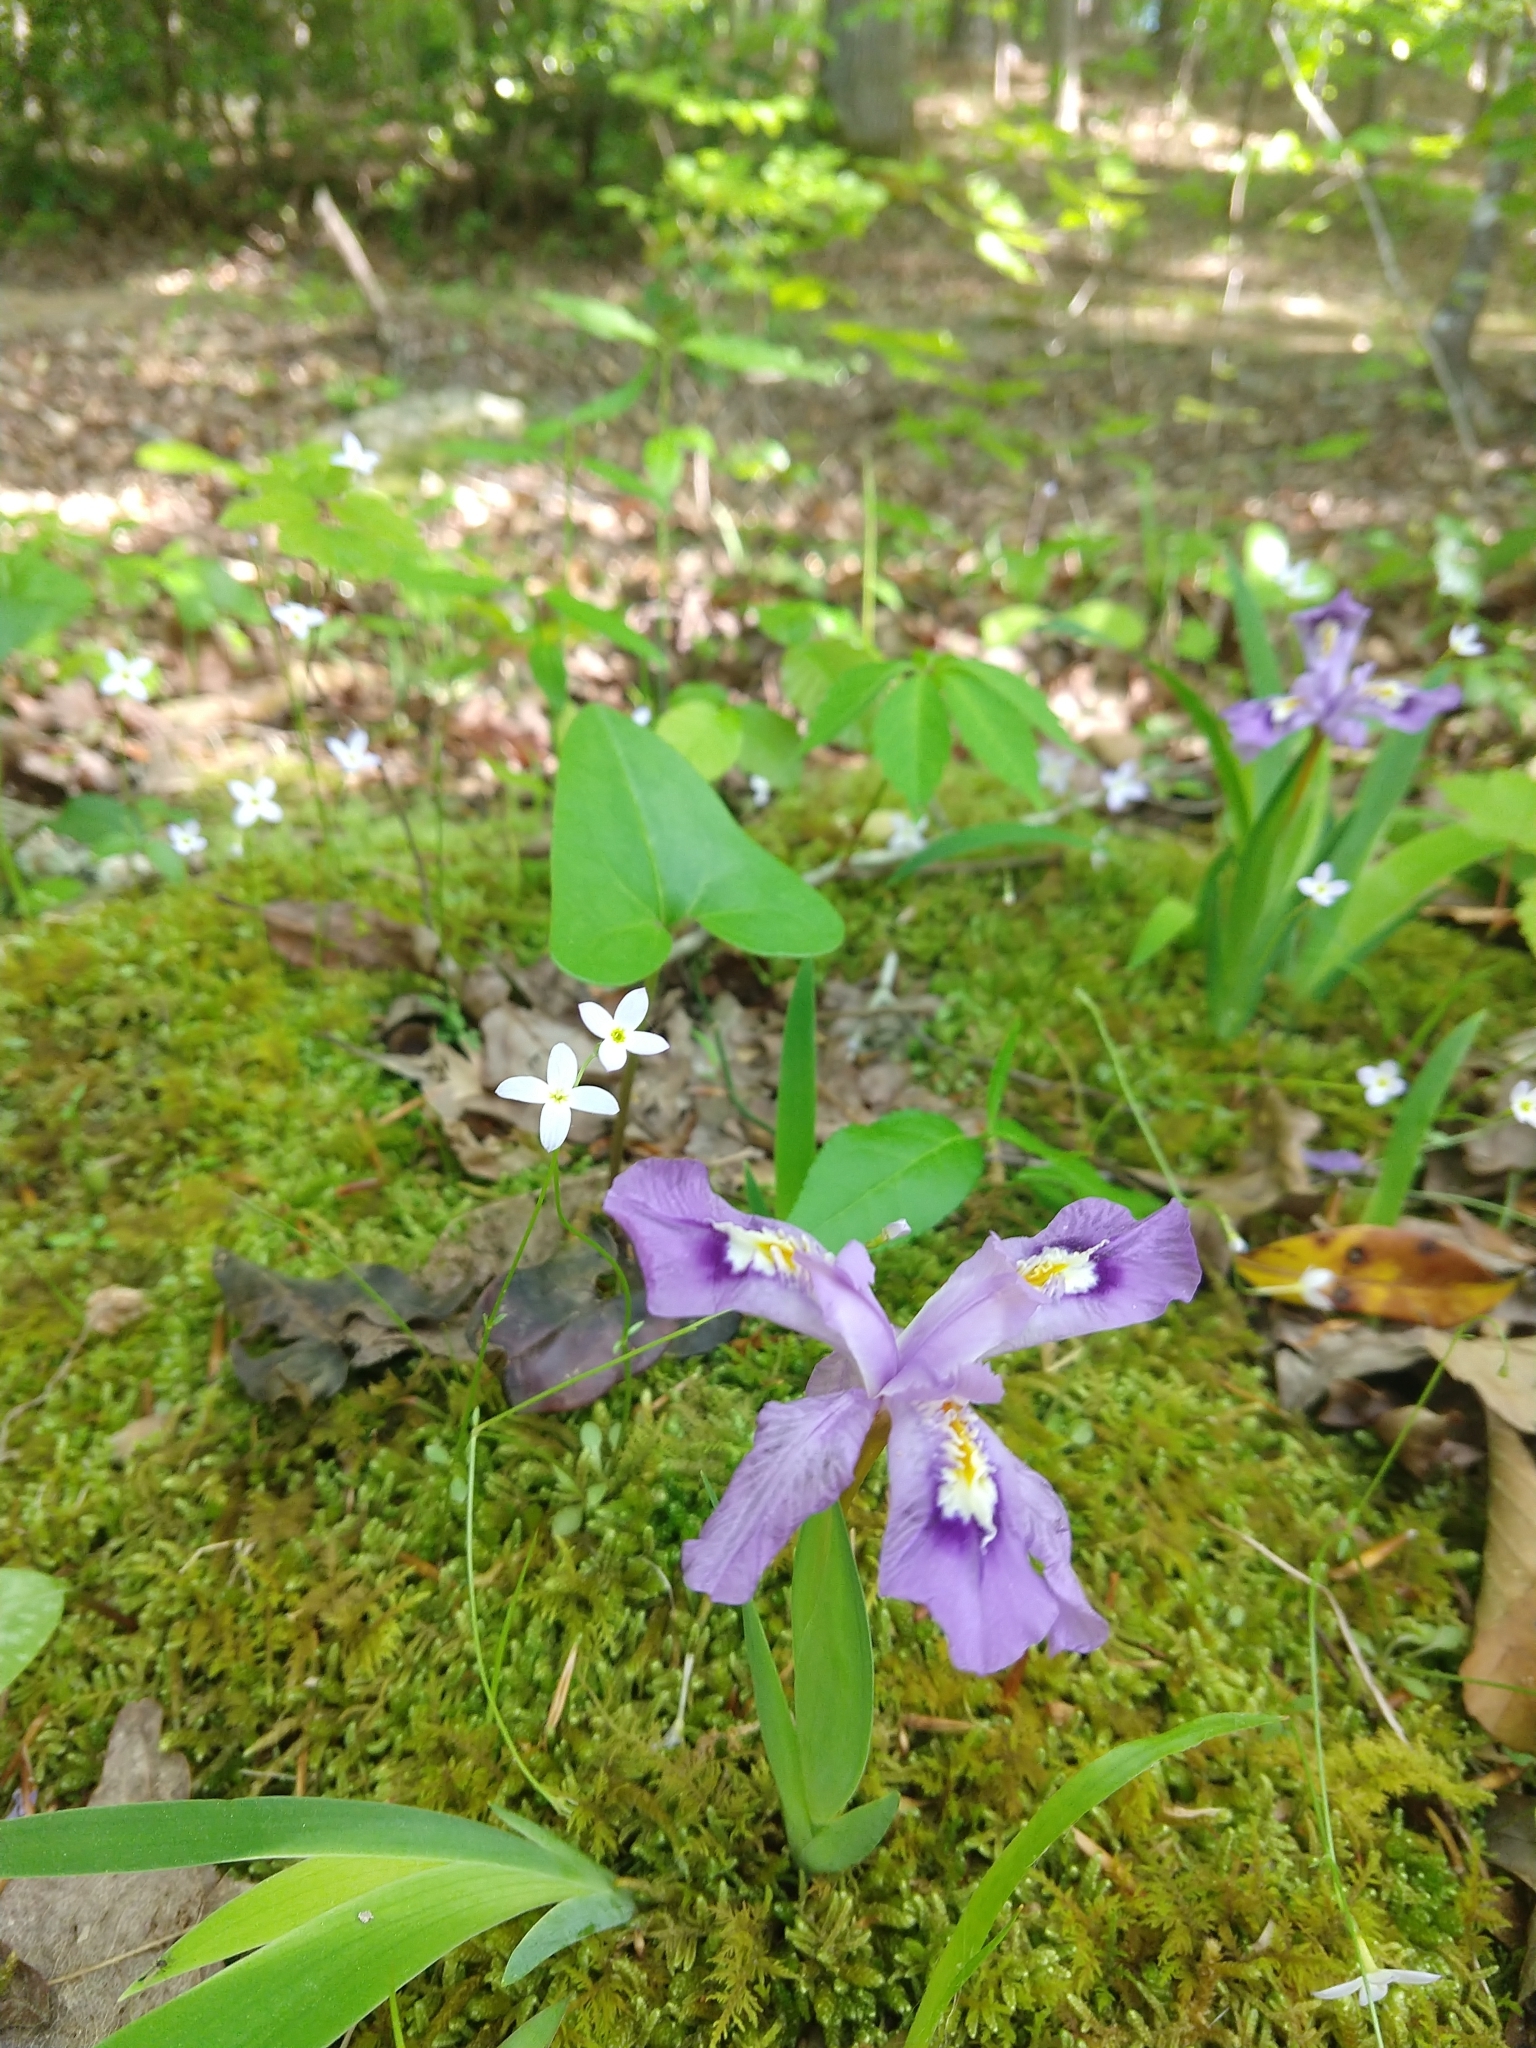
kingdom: Plantae
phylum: Tracheophyta
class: Liliopsida
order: Asparagales
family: Iridaceae
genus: Iris
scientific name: Iris cristata
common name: Crested iris
